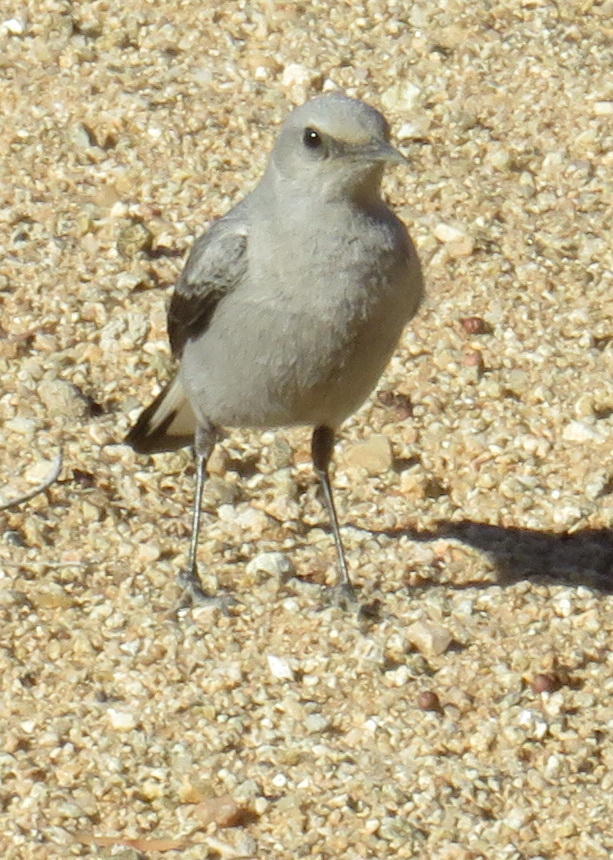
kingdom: Animalia
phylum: Chordata
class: Aves
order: Passeriformes
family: Muscicapidae
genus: Oenanthe
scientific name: Oenanthe monticola
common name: Mountain wheatear
